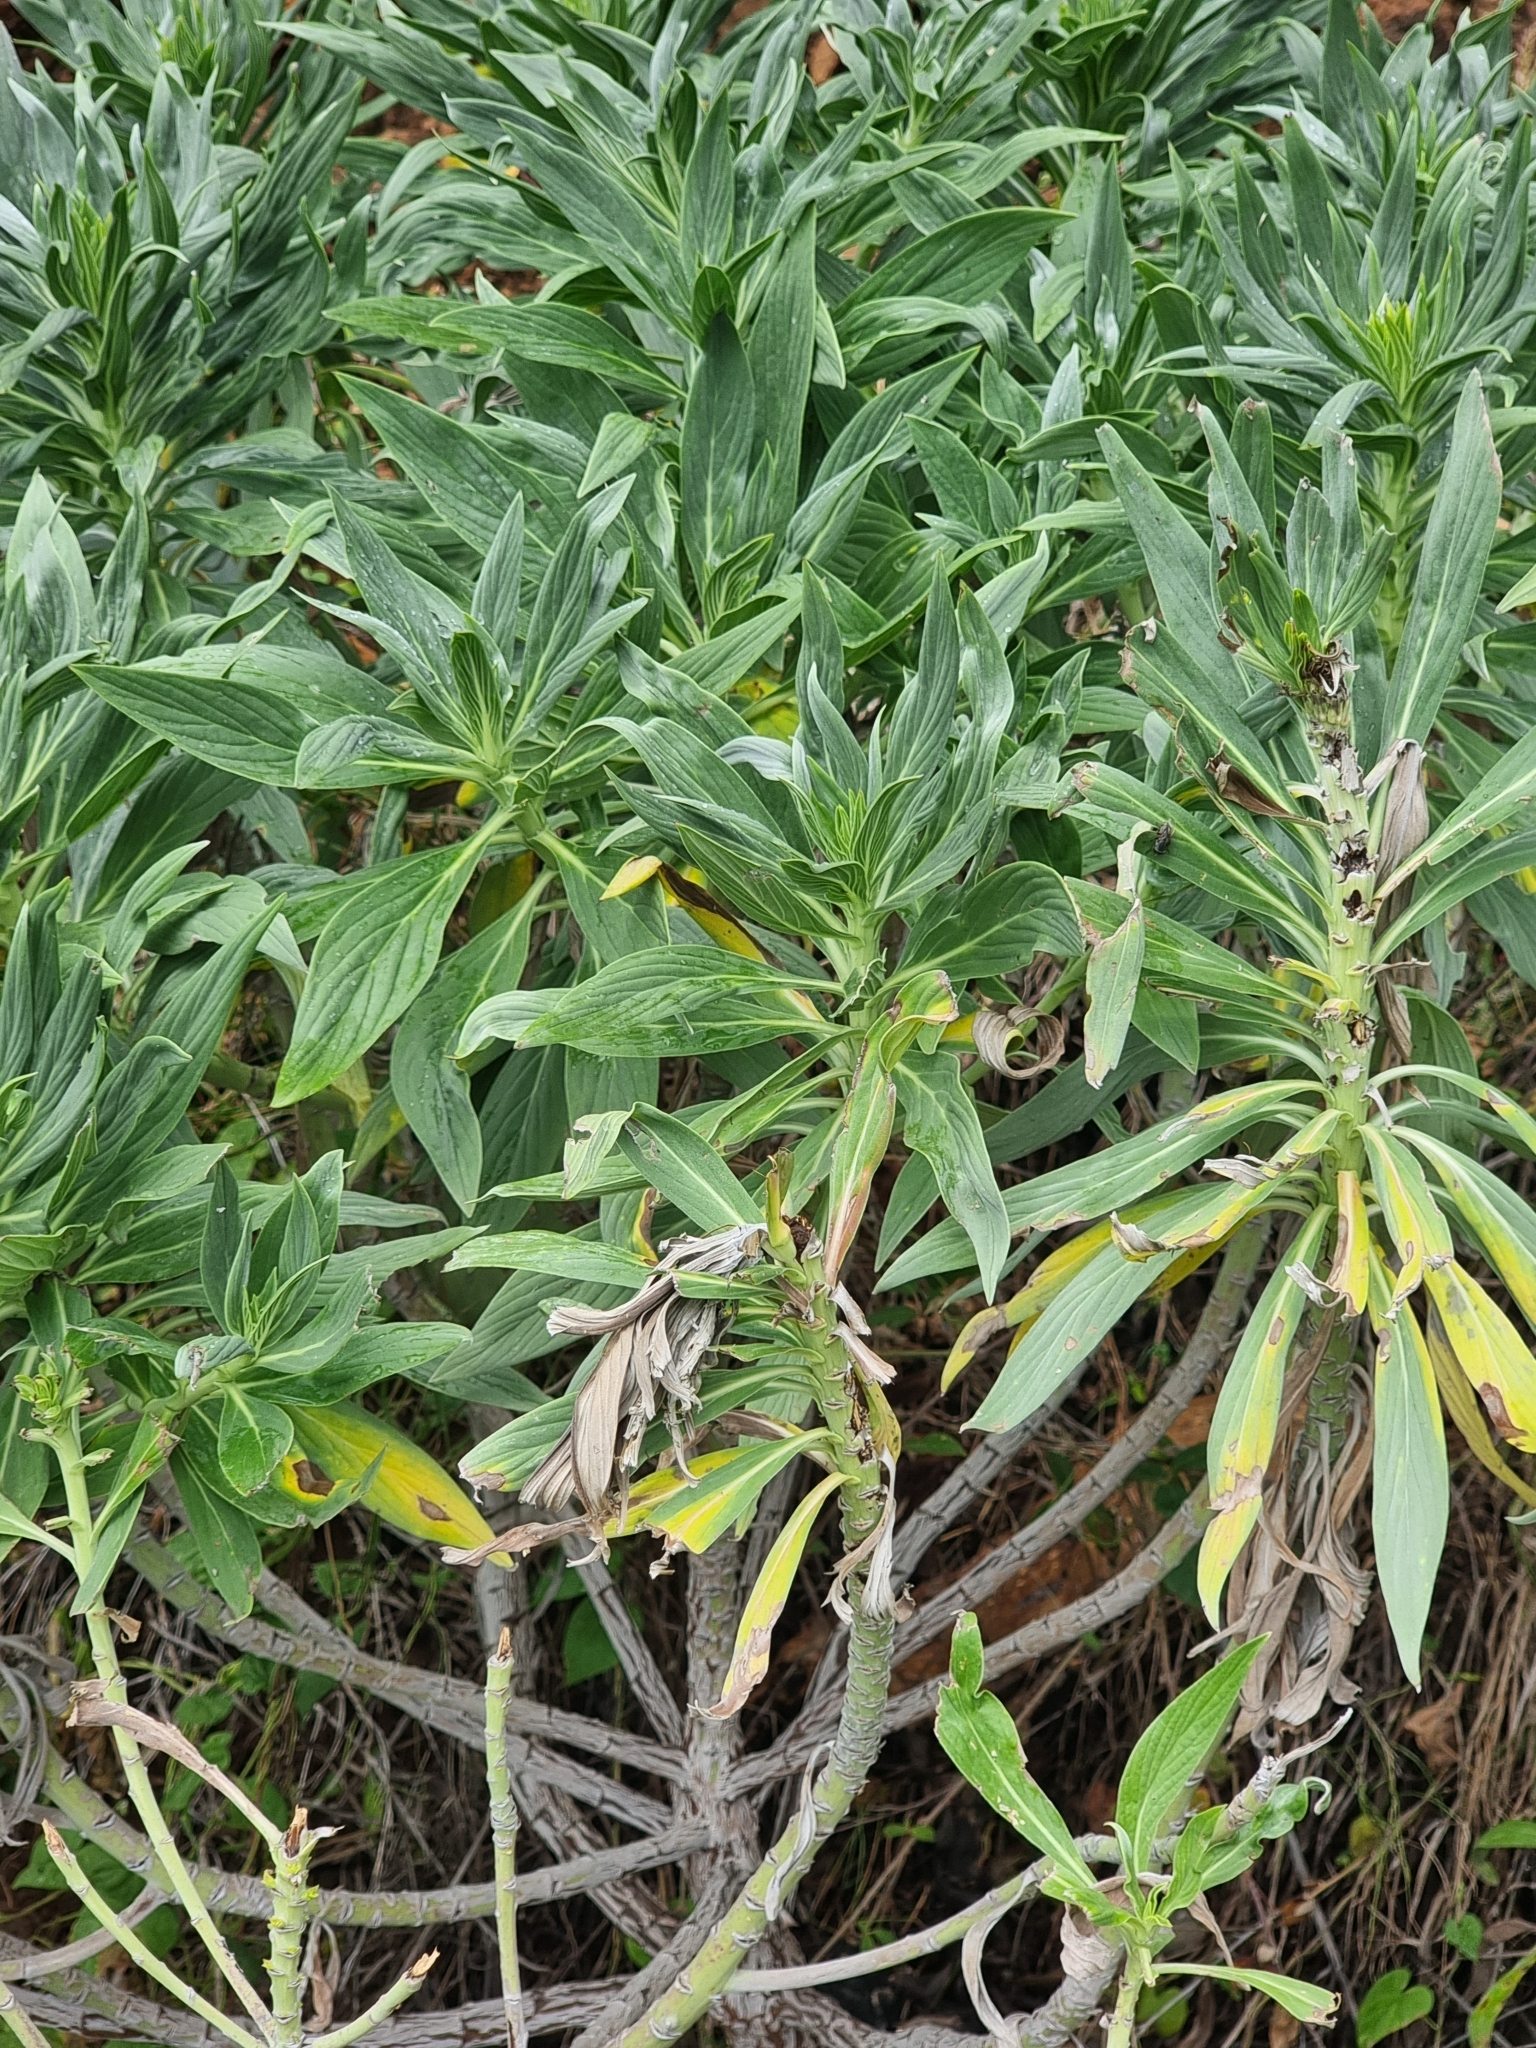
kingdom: Plantae
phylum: Tracheophyta
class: Magnoliopsida
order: Boraginales
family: Boraginaceae
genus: Echium
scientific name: Echium nervosum
